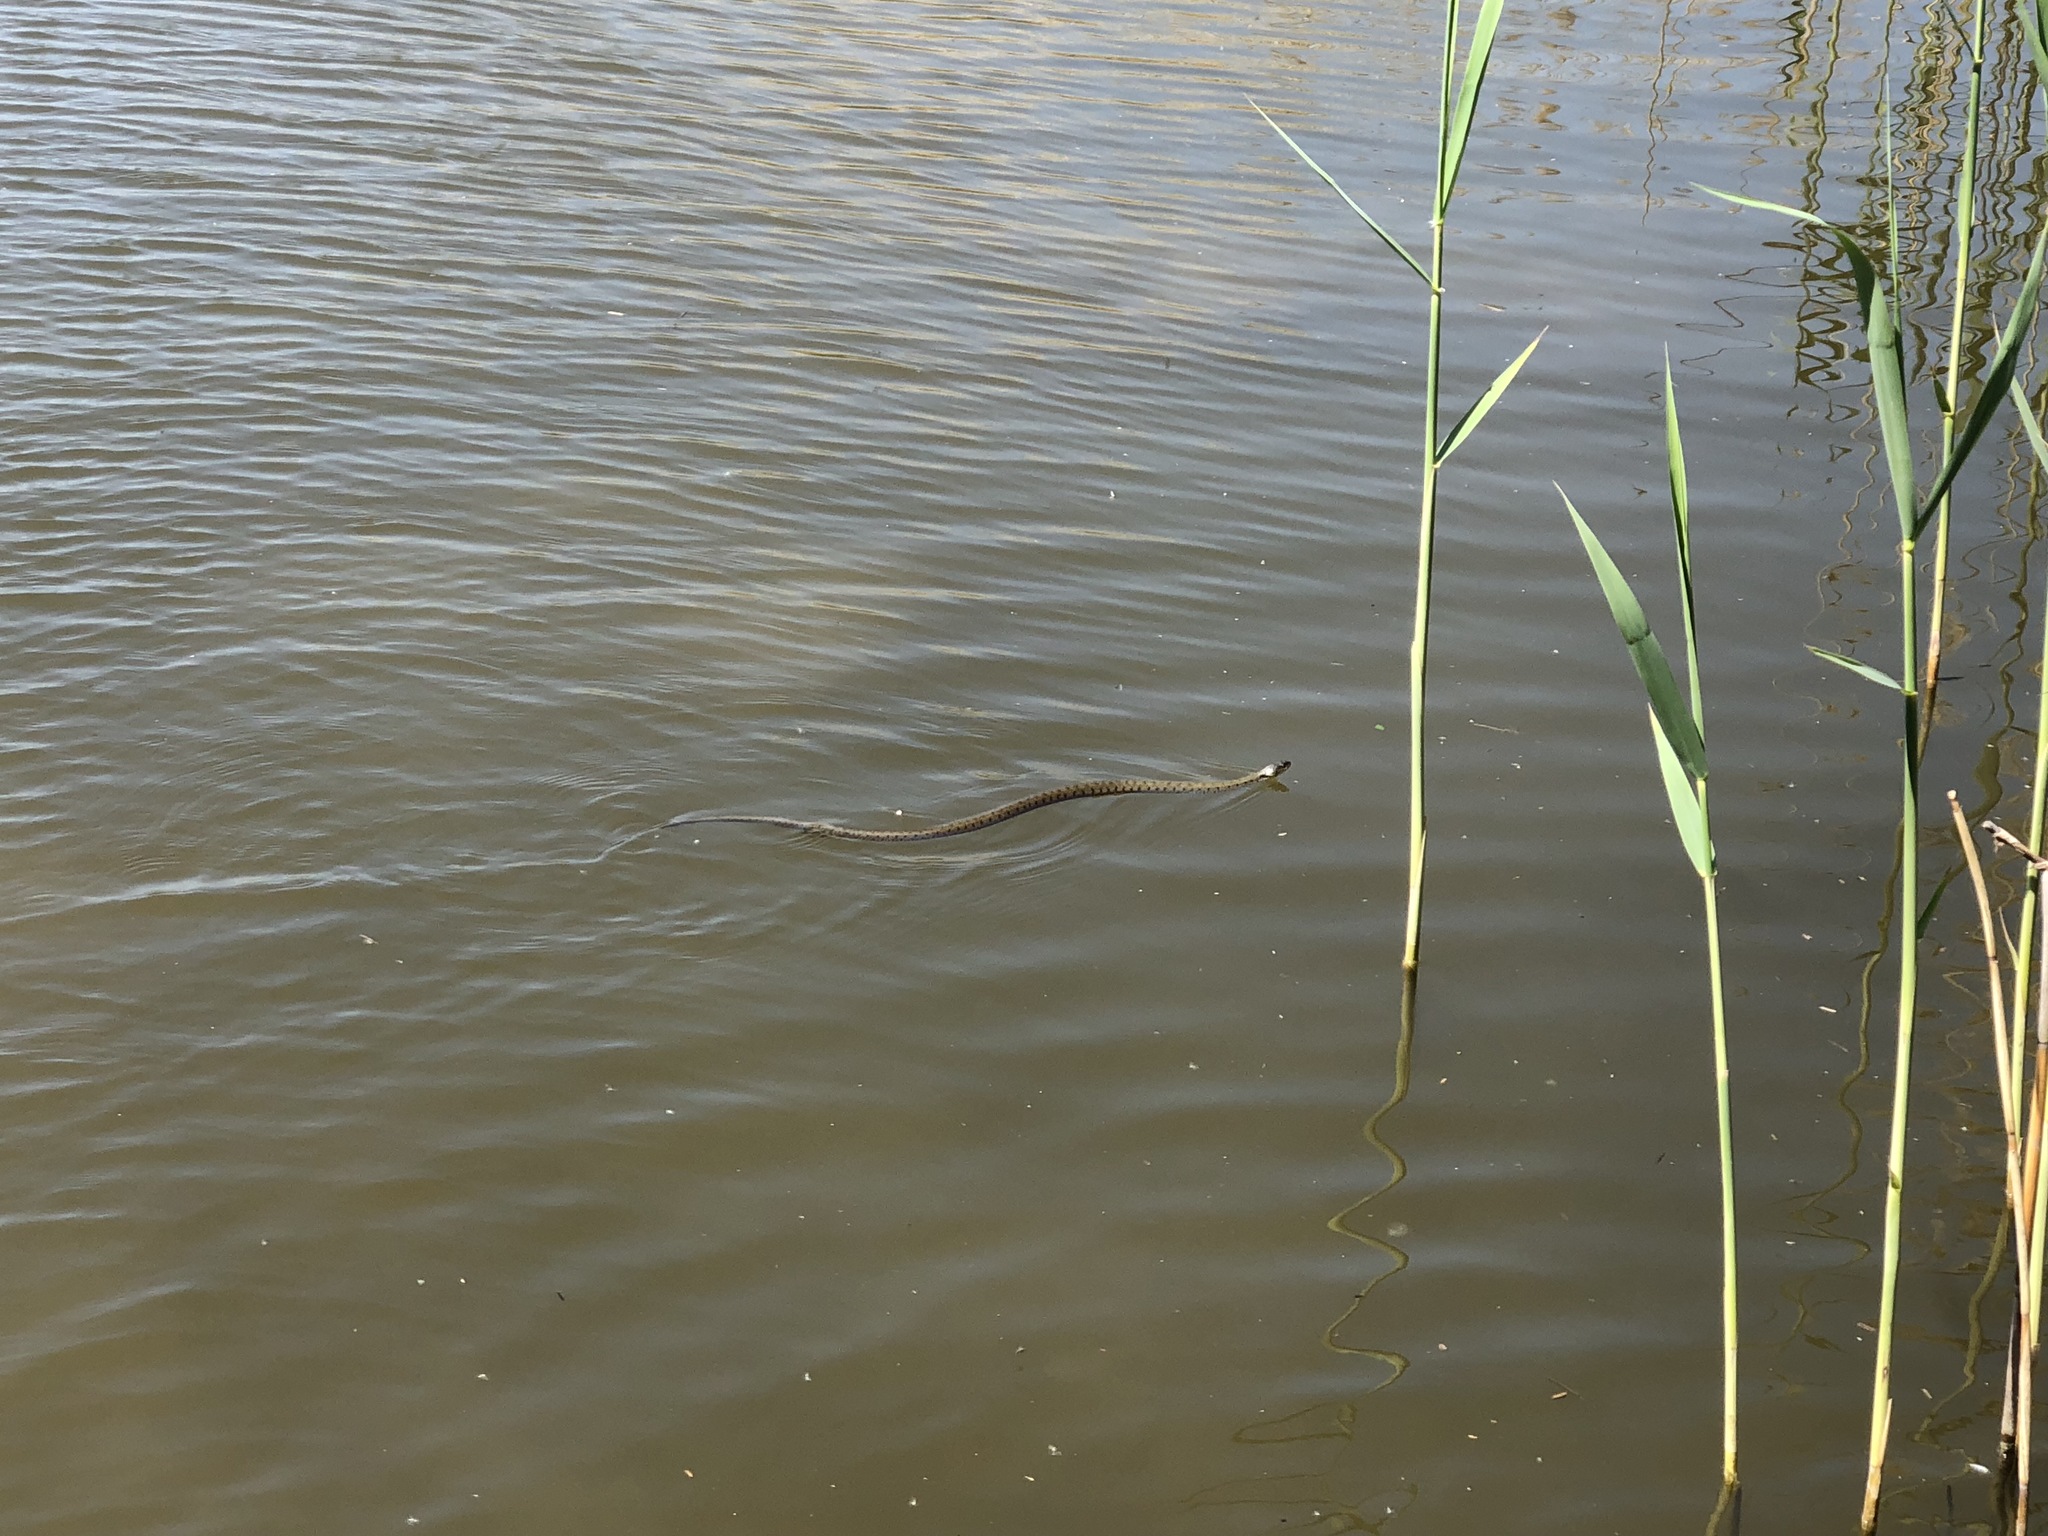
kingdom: Animalia
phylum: Chordata
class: Squamata
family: Colubridae
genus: Natrix
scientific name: Natrix helvetica
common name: Banded grass snake
